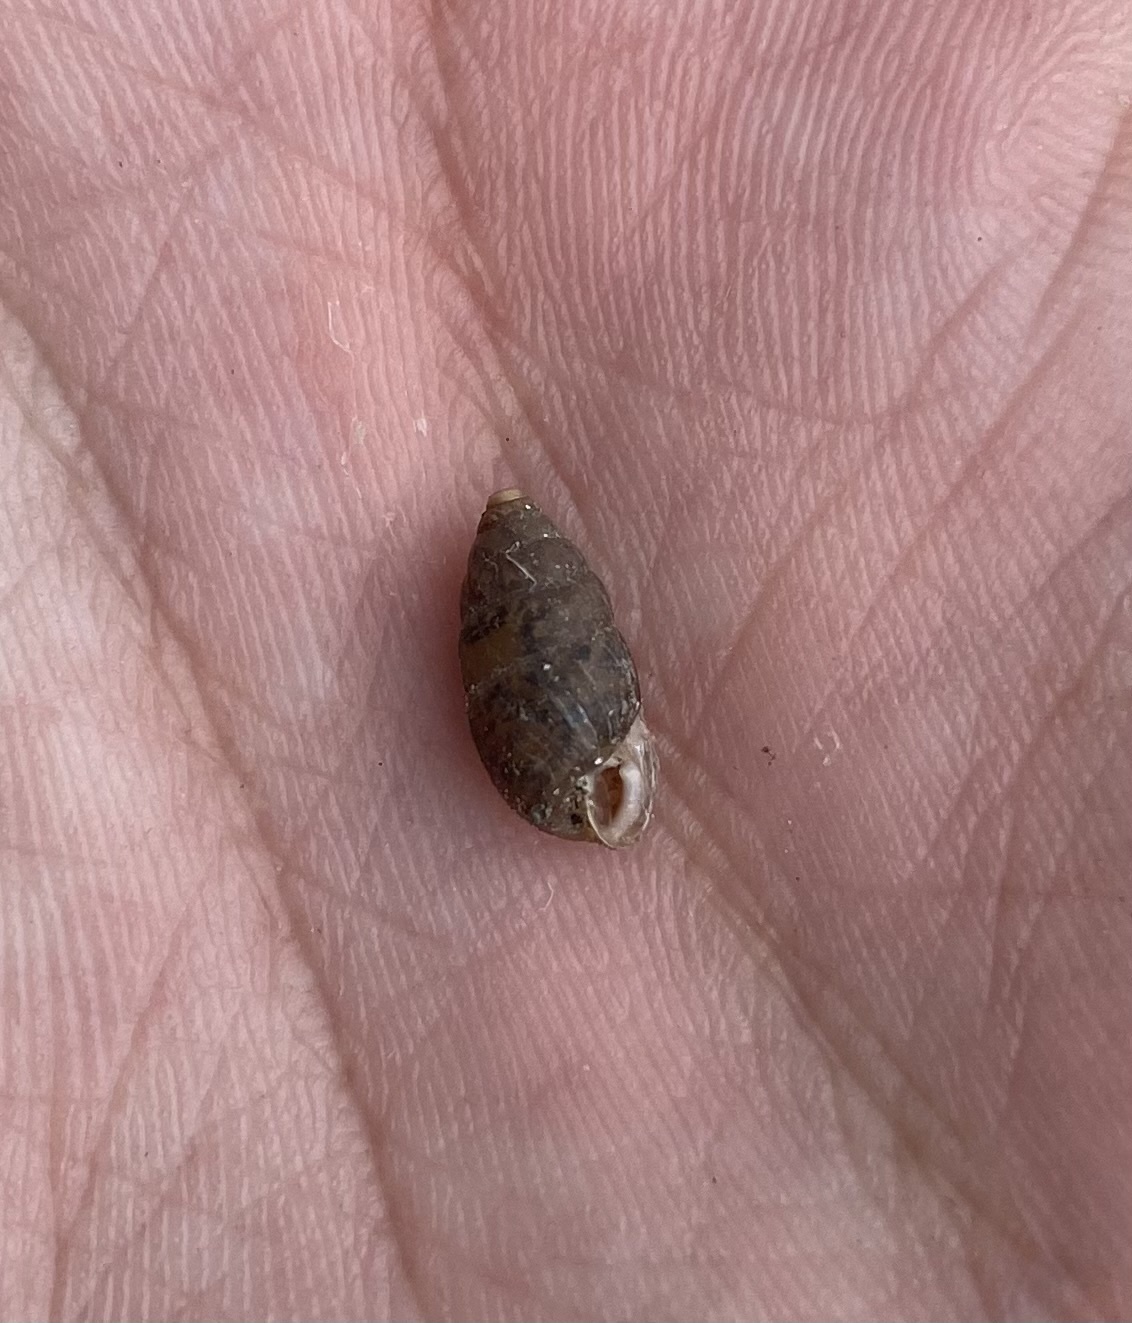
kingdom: Animalia
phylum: Mollusca
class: Gastropoda
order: Stylommatophora
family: Enidae
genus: Chondrula
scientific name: Chondrula tridens
